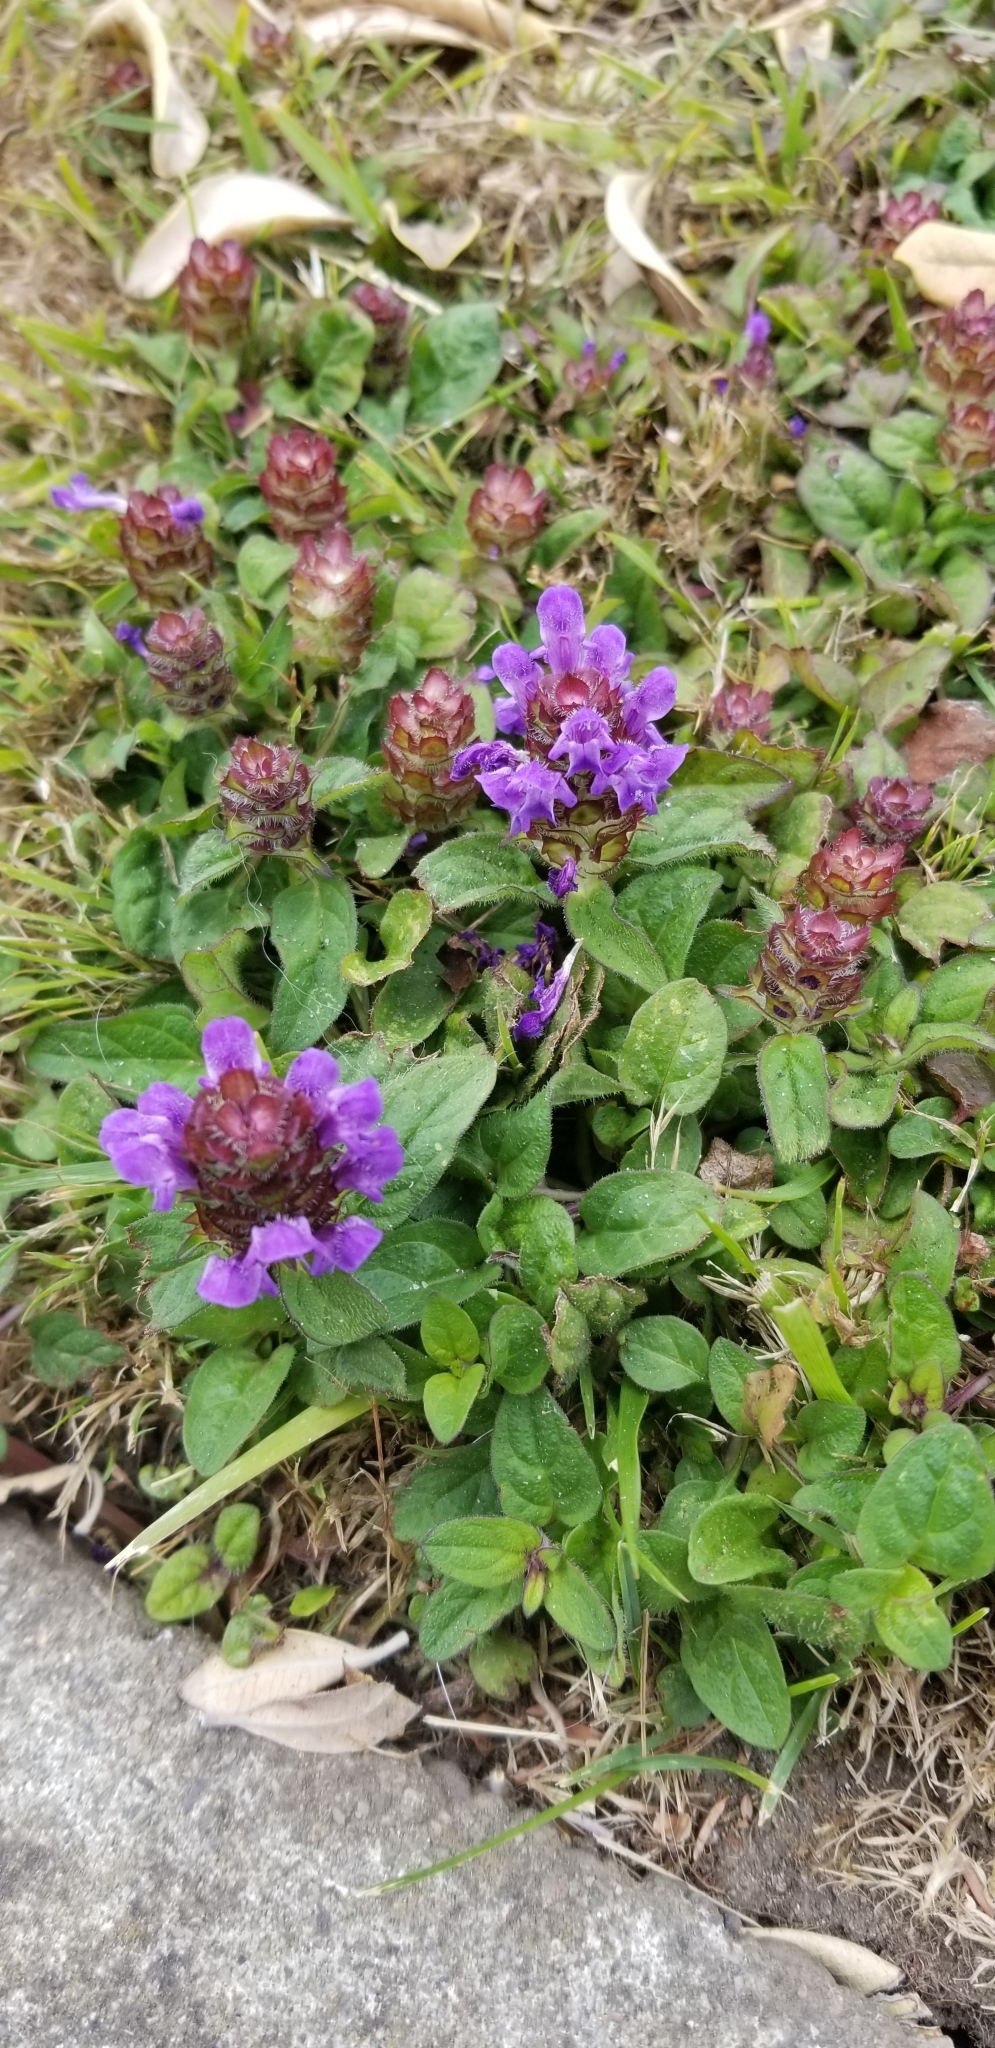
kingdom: Plantae
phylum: Tracheophyta
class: Magnoliopsida
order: Lamiales
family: Lamiaceae
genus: Prunella
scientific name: Prunella vulgaris
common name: Heal-all
